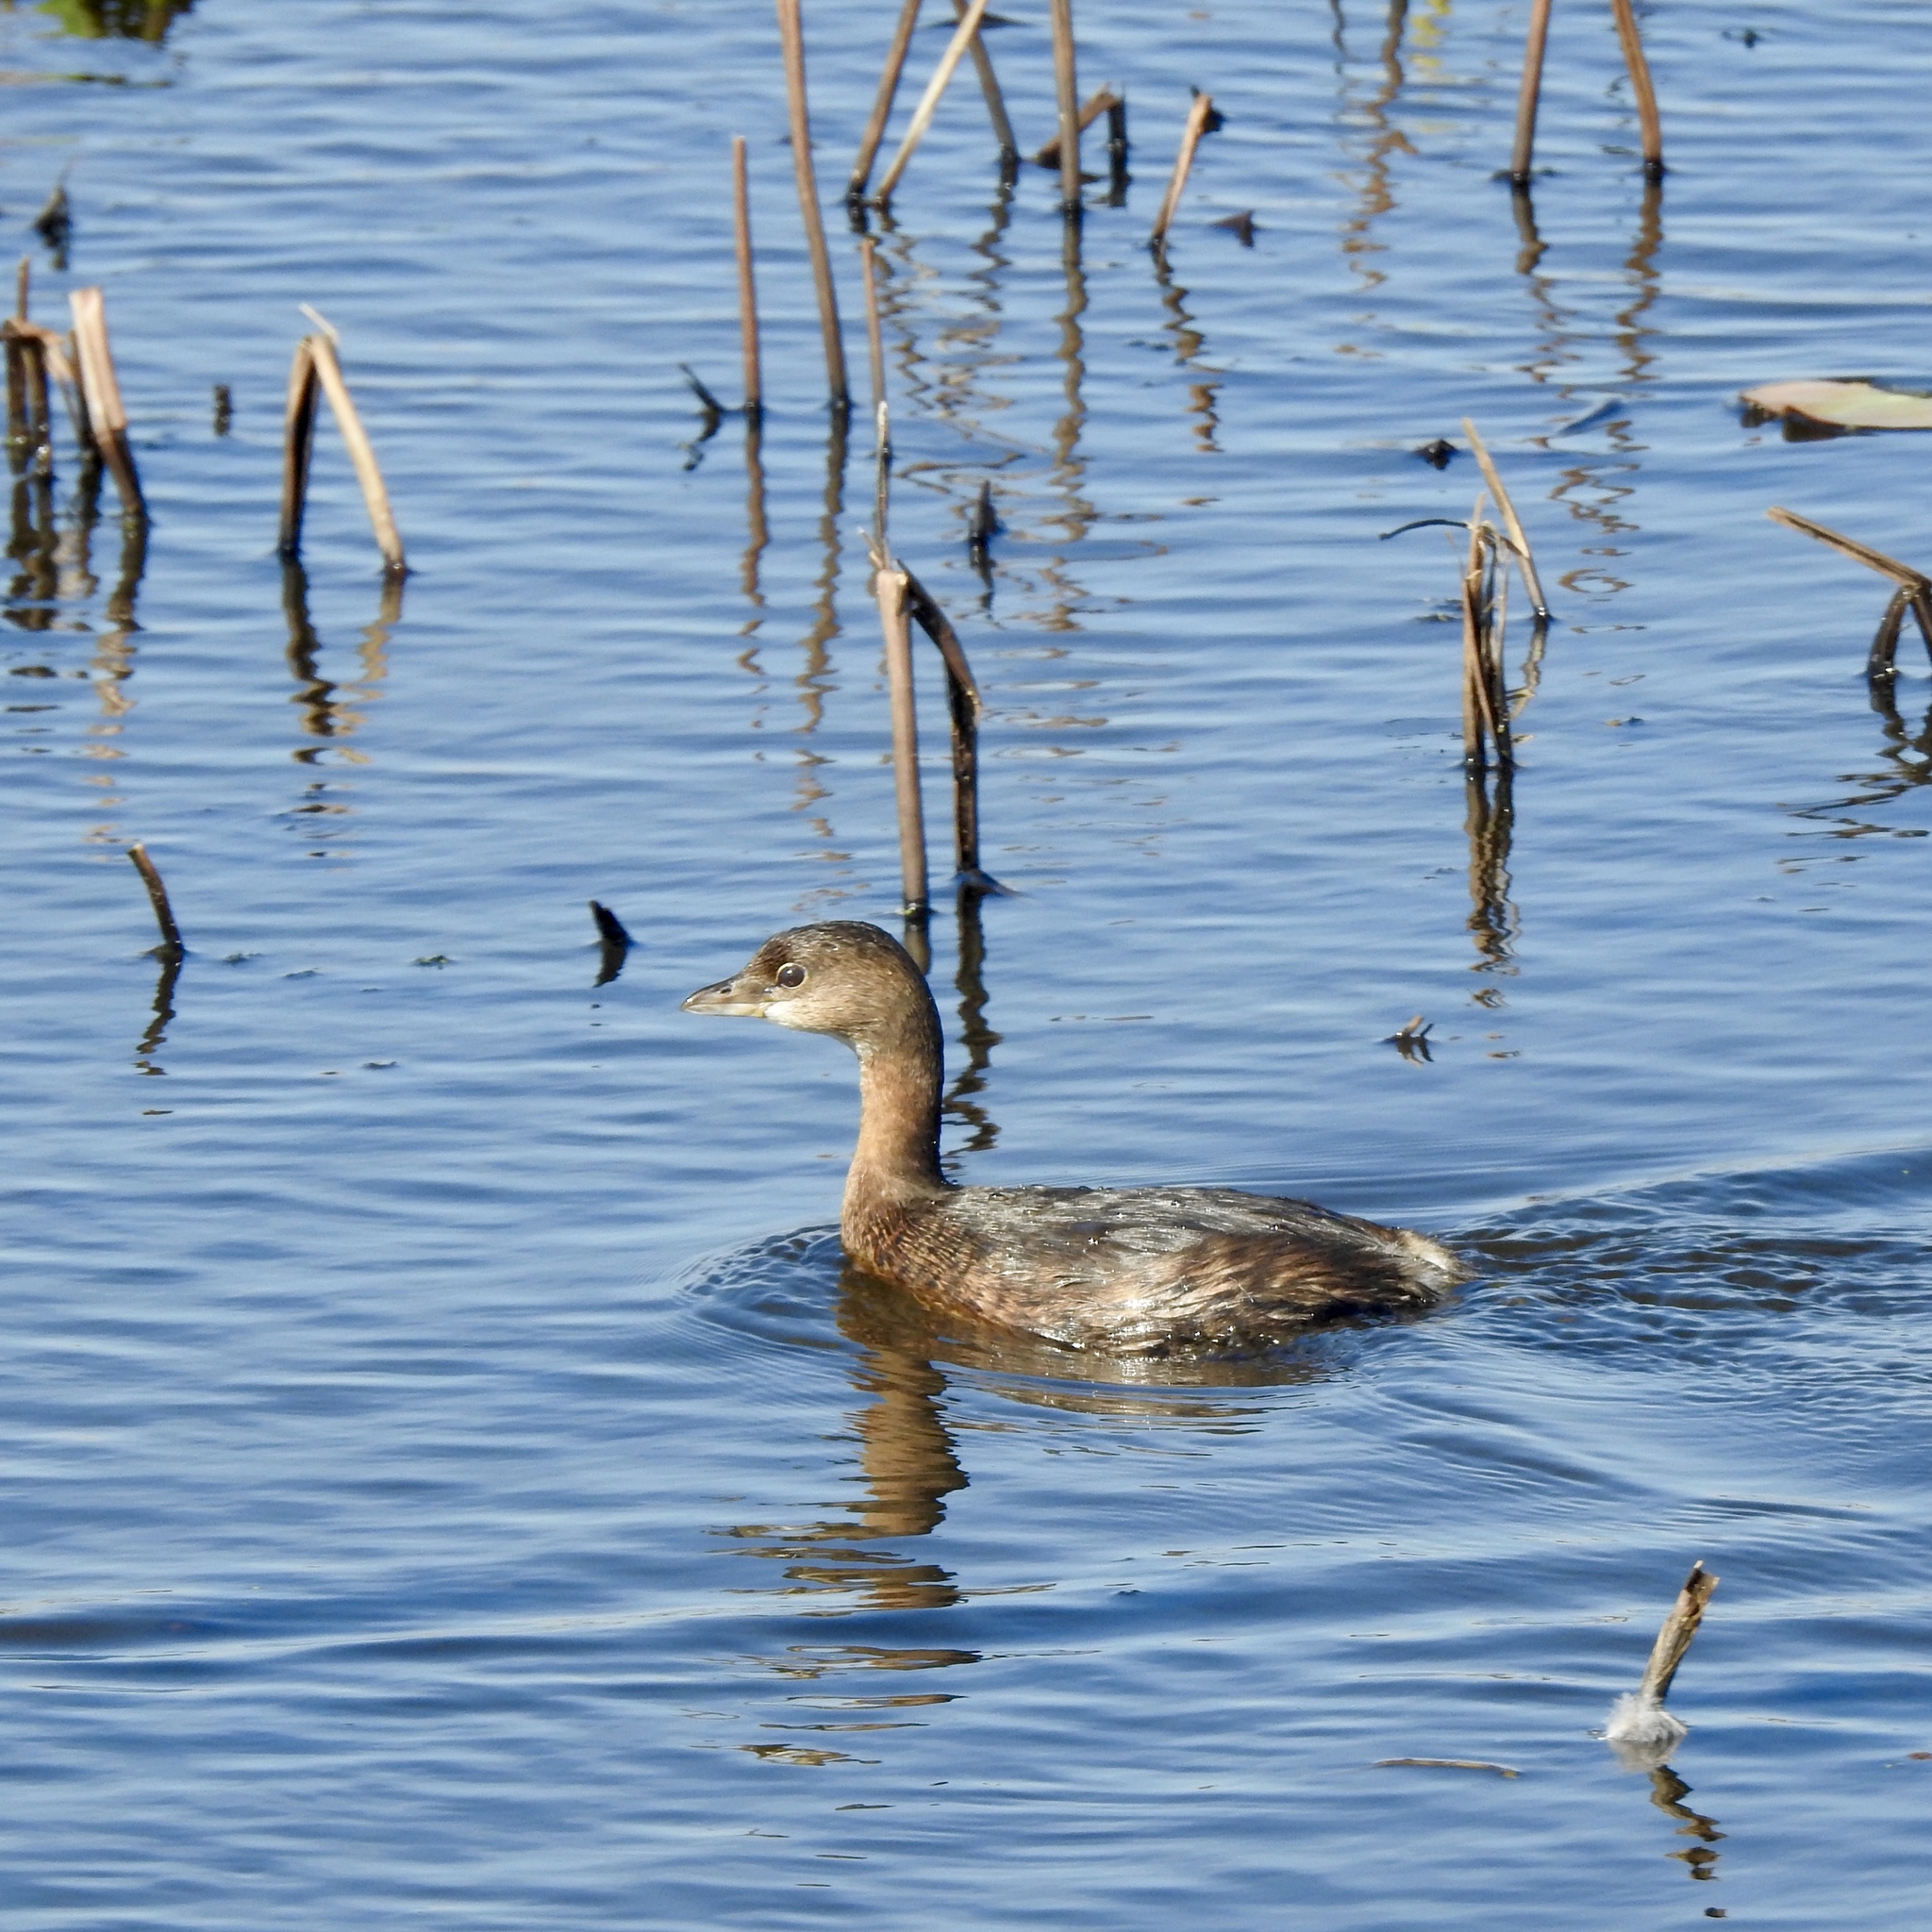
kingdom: Animalia
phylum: Chordata
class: Aves
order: Podicipediformes
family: Podicipedidae
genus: Podilymbus
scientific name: Podilymbus podiceps
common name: Pied-billed grebe
